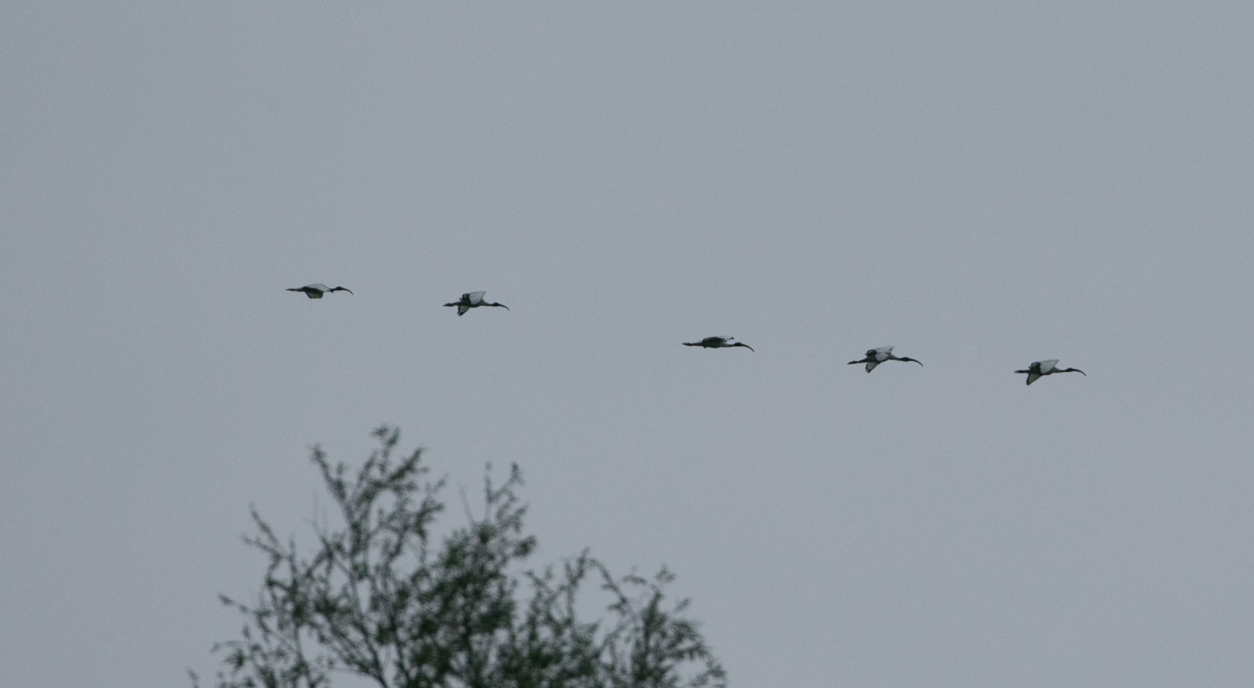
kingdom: Animalia
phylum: Chordata
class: Aves
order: Pelecaniformes
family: Threskiornithidae
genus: Threskiornis
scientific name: Threskiornis aethiopicus
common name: Sacred ibis
